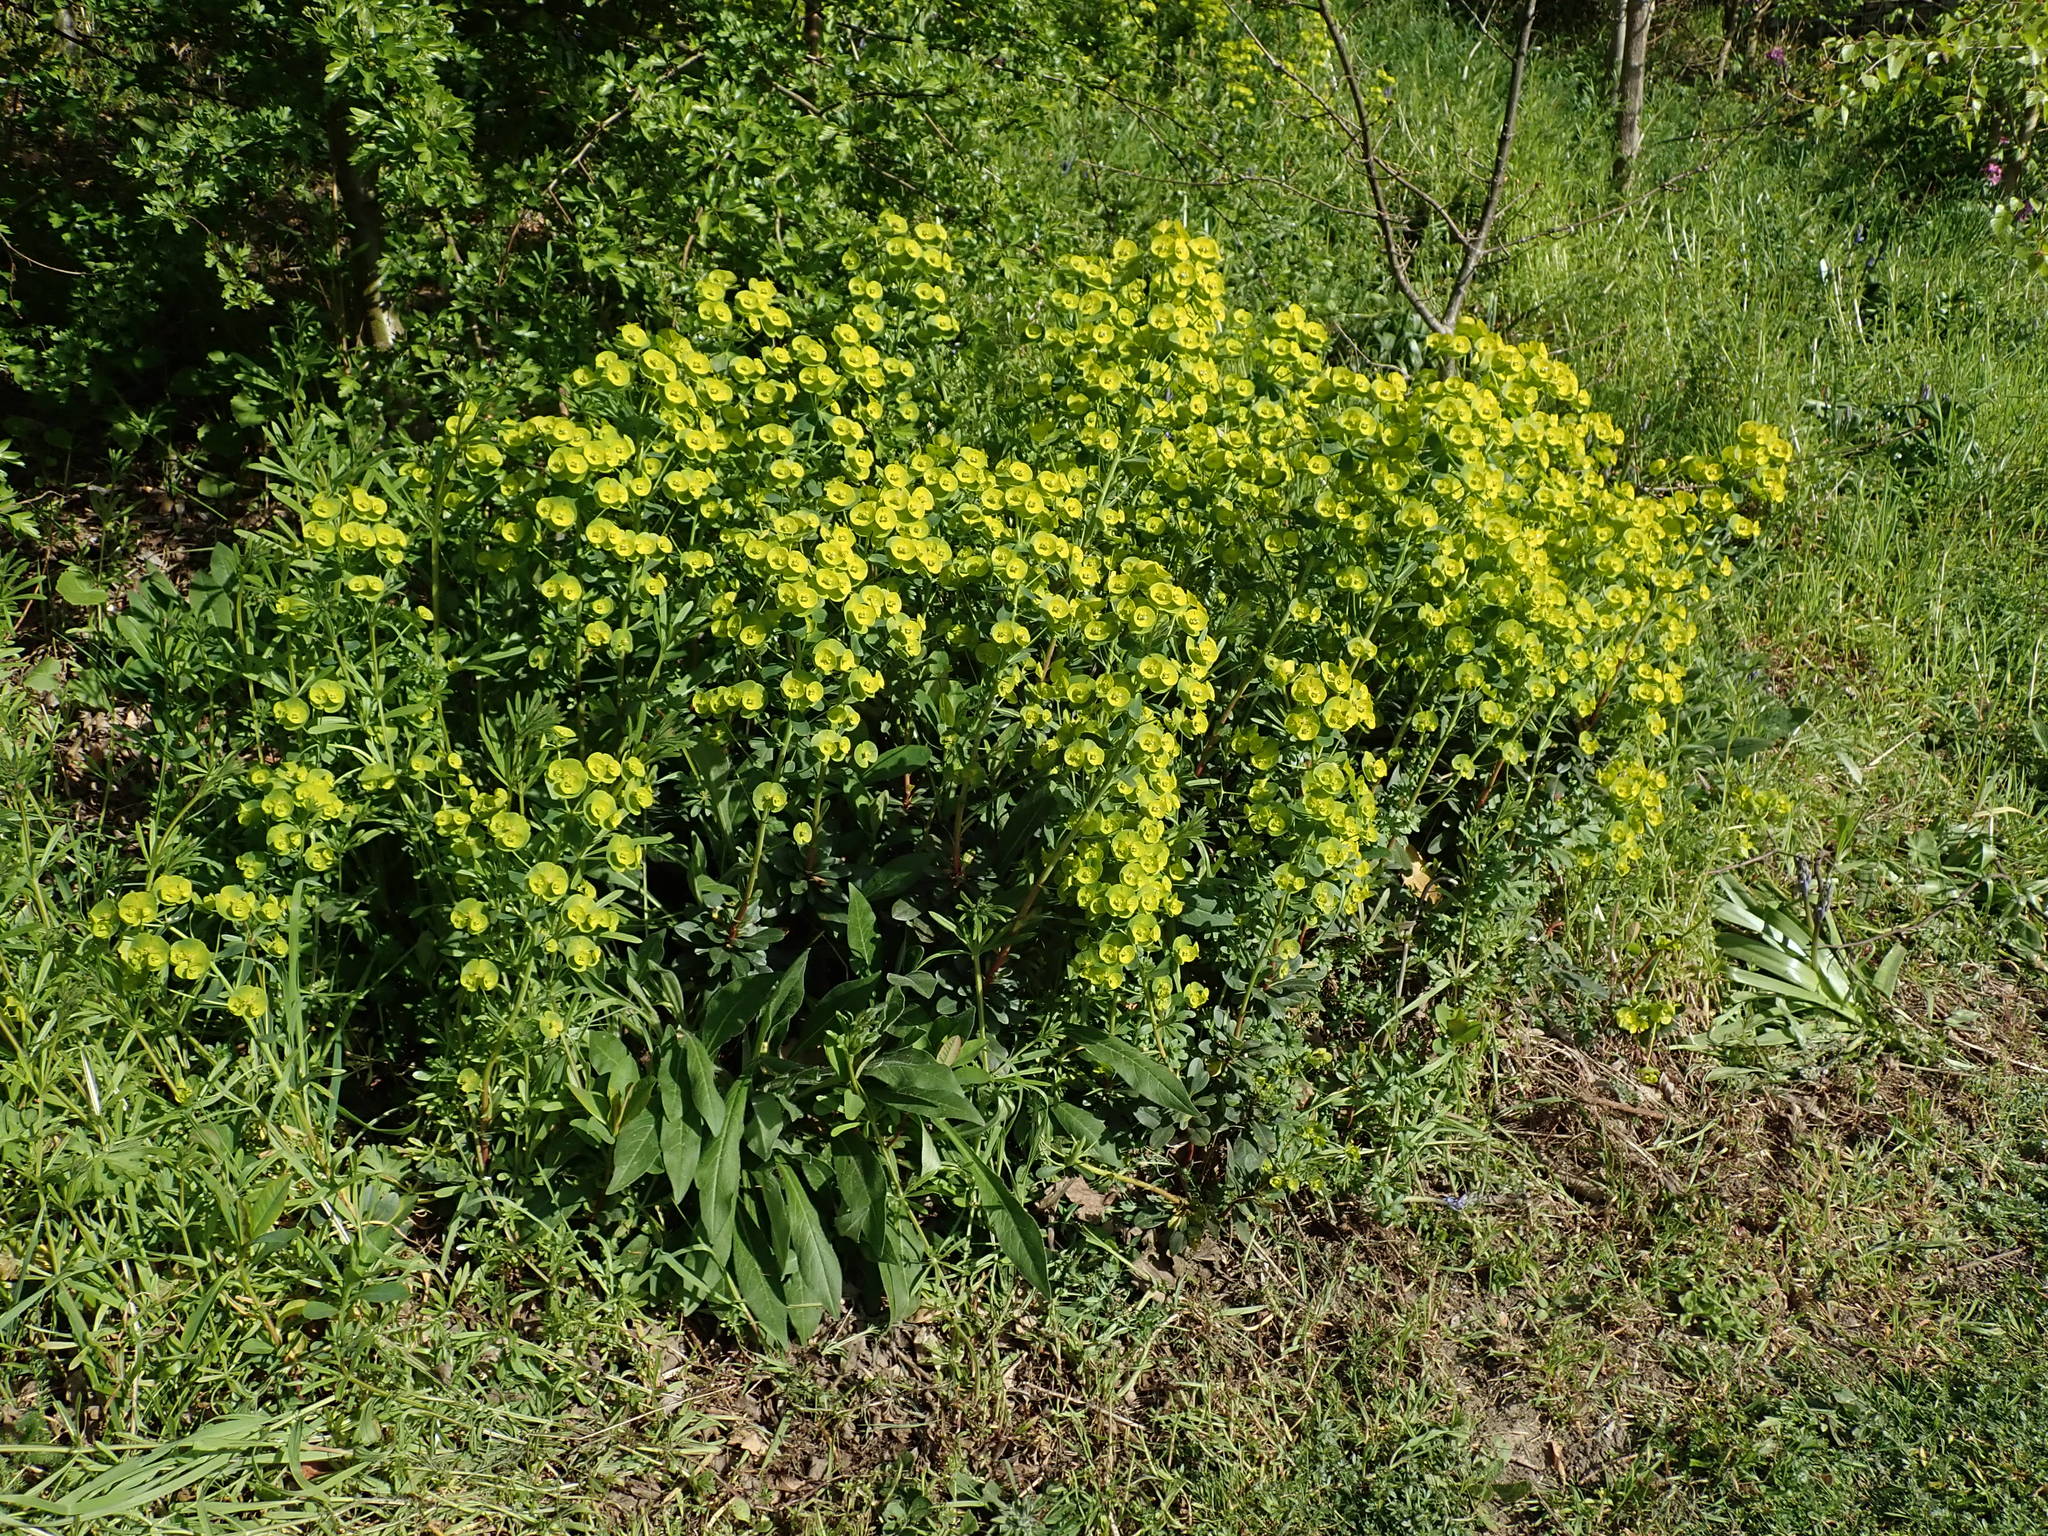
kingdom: Plantae
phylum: Tracheophyta
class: Magnoliopsida
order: Malpighiales
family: Euphorbiaceae
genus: Euphorbia
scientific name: Euphorbia amygdaloides
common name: Wood spurge
